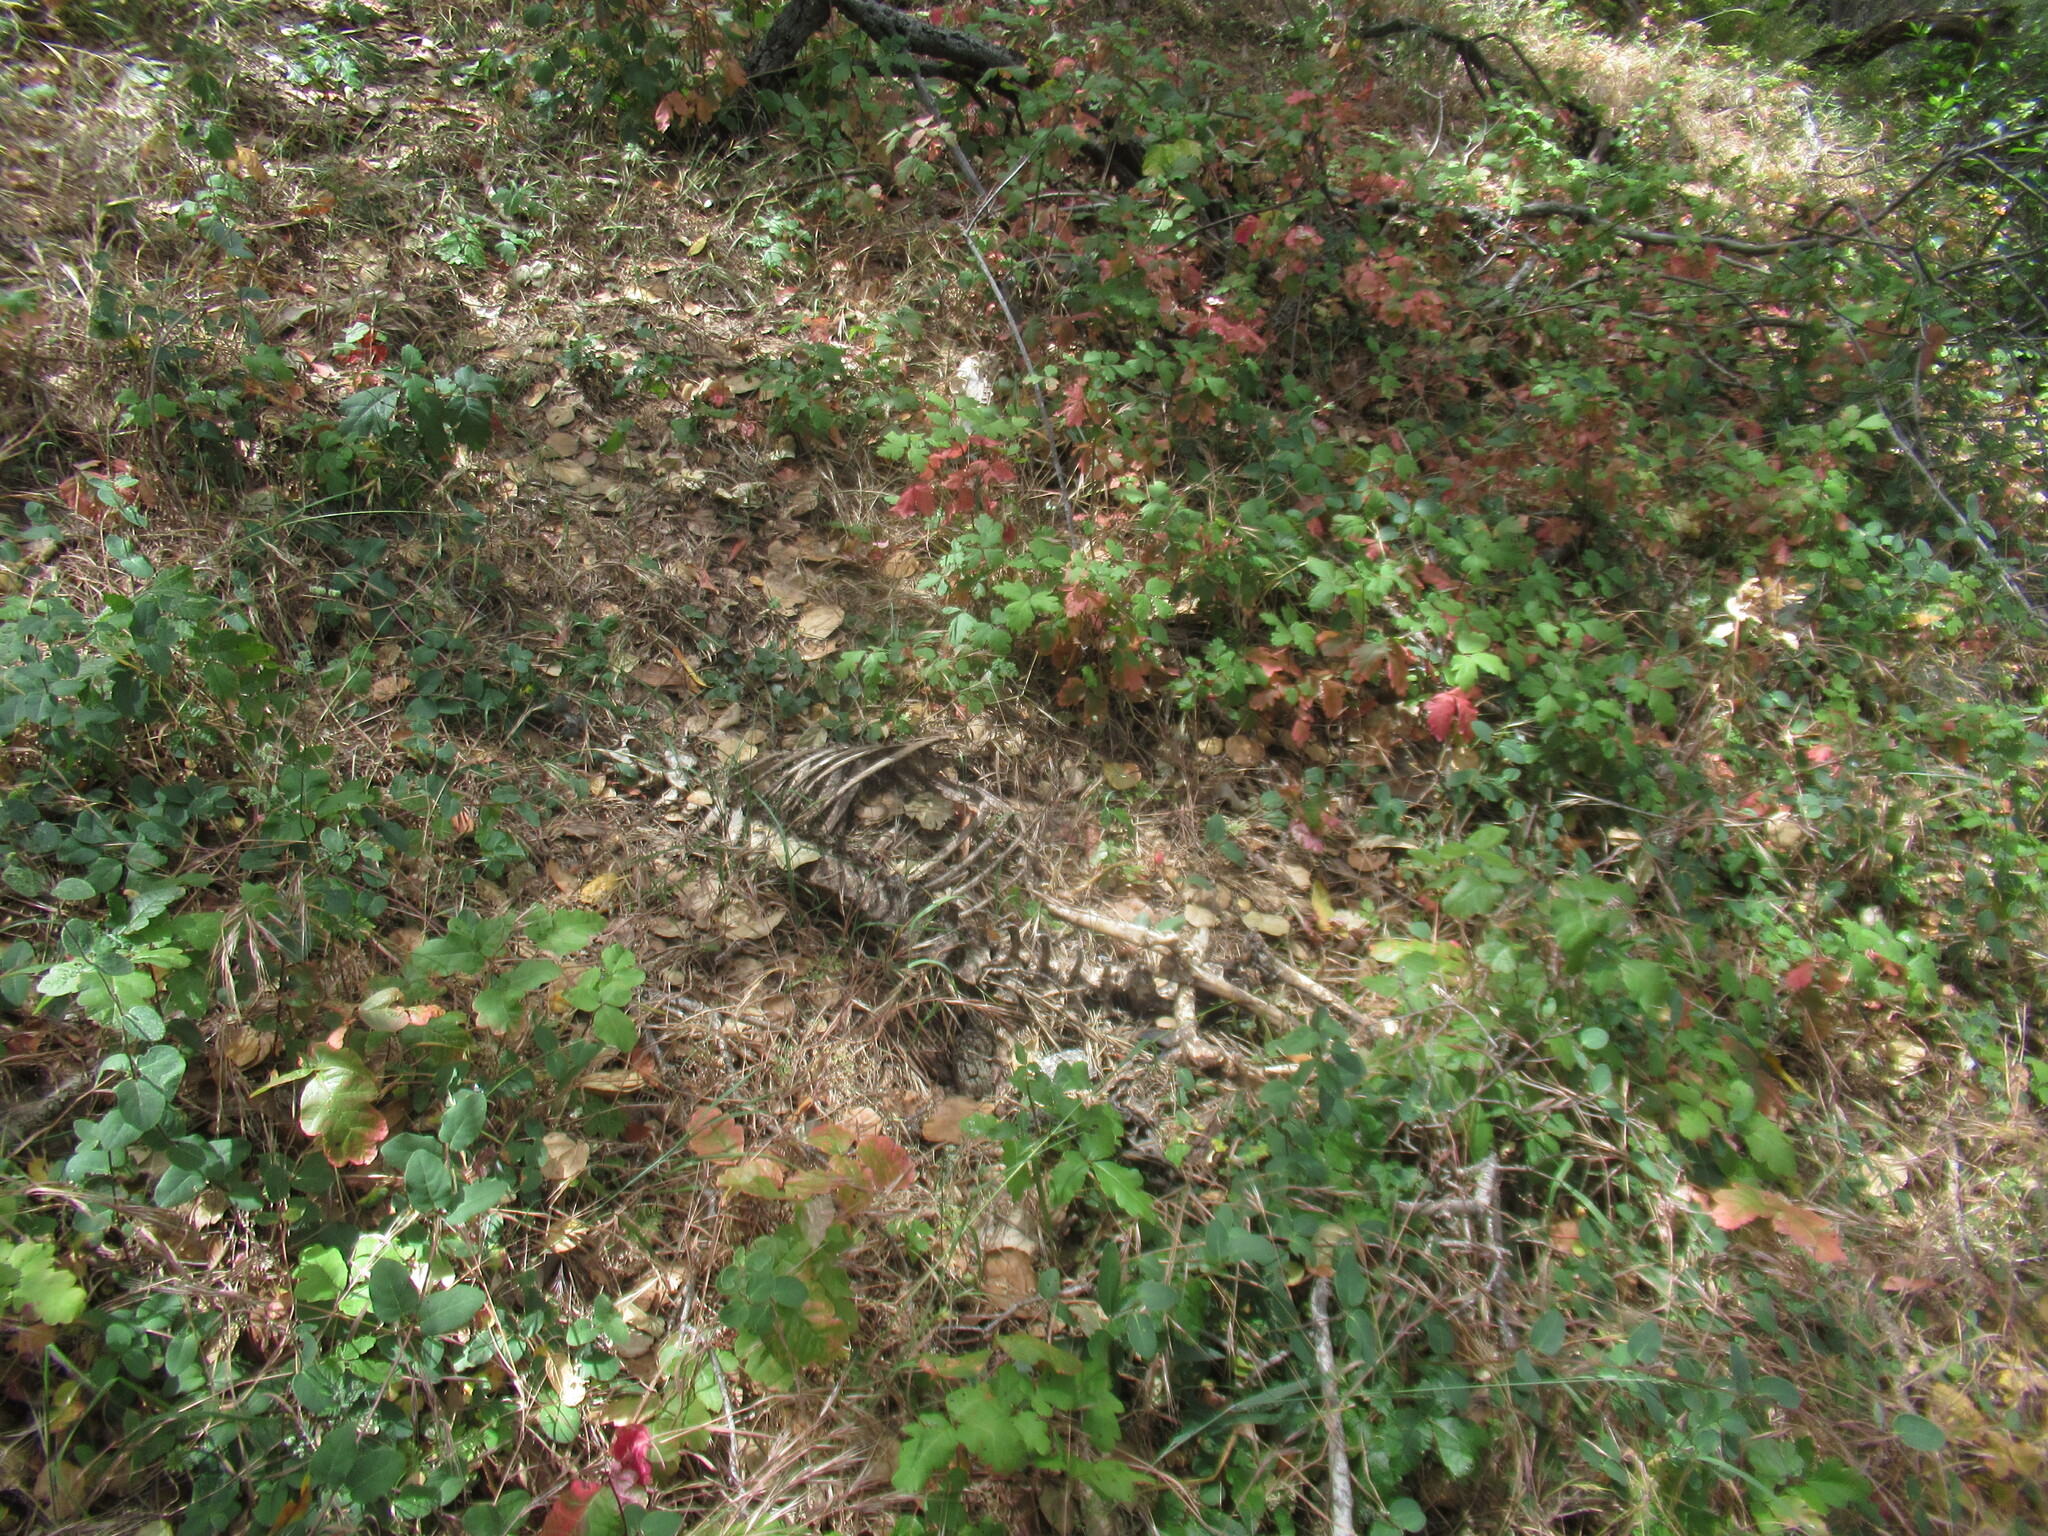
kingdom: Animalia
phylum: Chordata
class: Mammalia
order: Artiodactyla
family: Cervidae
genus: Odocoileus
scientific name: Odocoileus hemionus
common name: Mule deer
